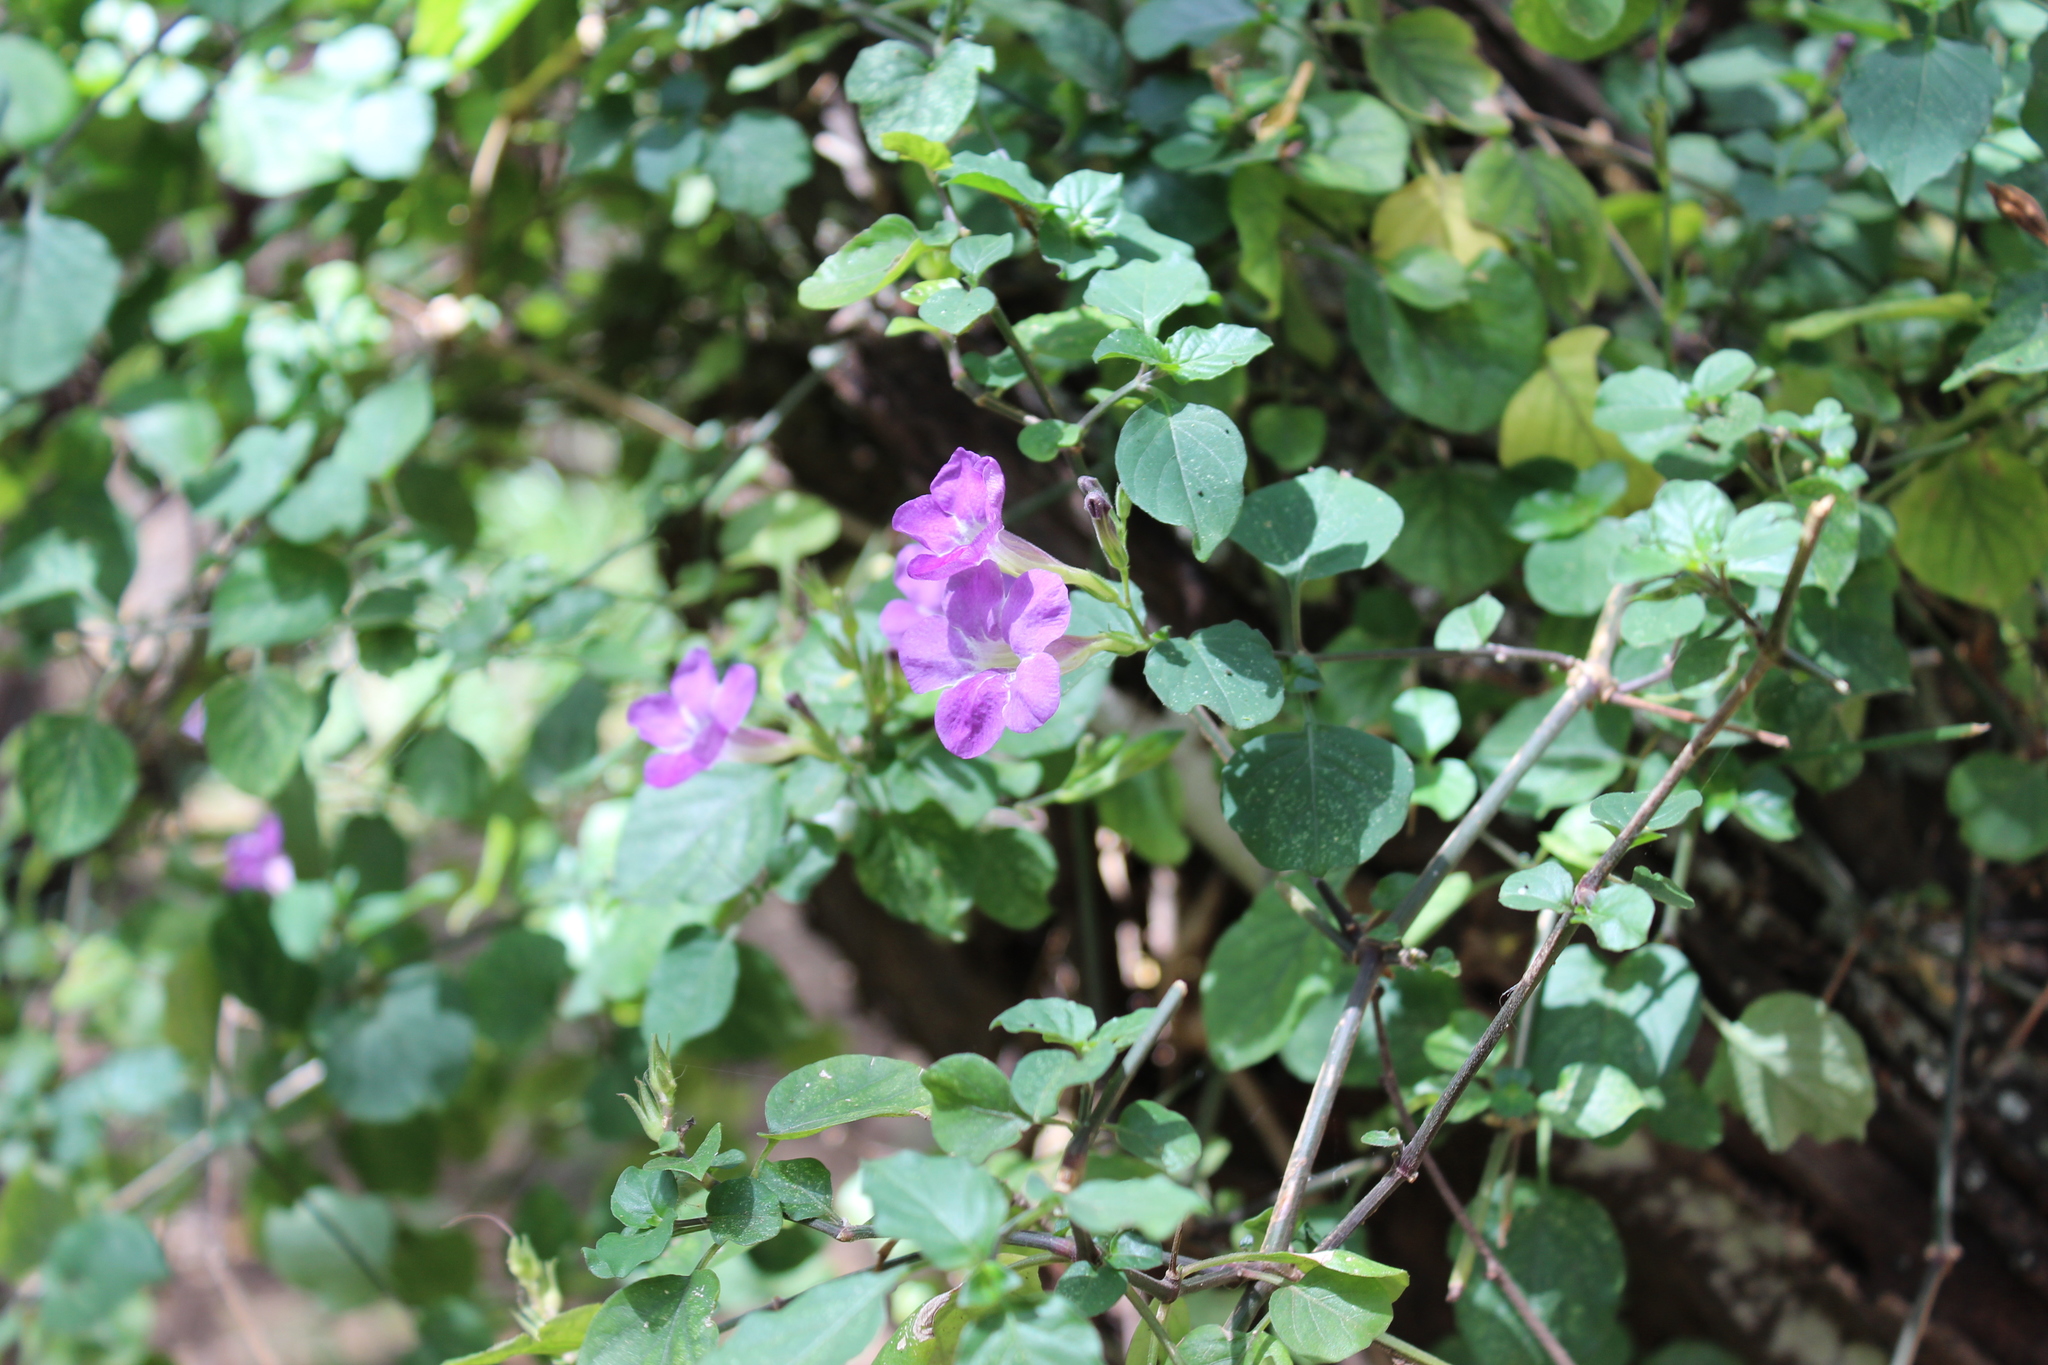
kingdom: Plantae
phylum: Tracheophyta
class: Magnoliopsida
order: Lamiales
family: Acanthaceae
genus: Asystasia
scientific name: Asystasia gangetica
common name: Chinese violet
